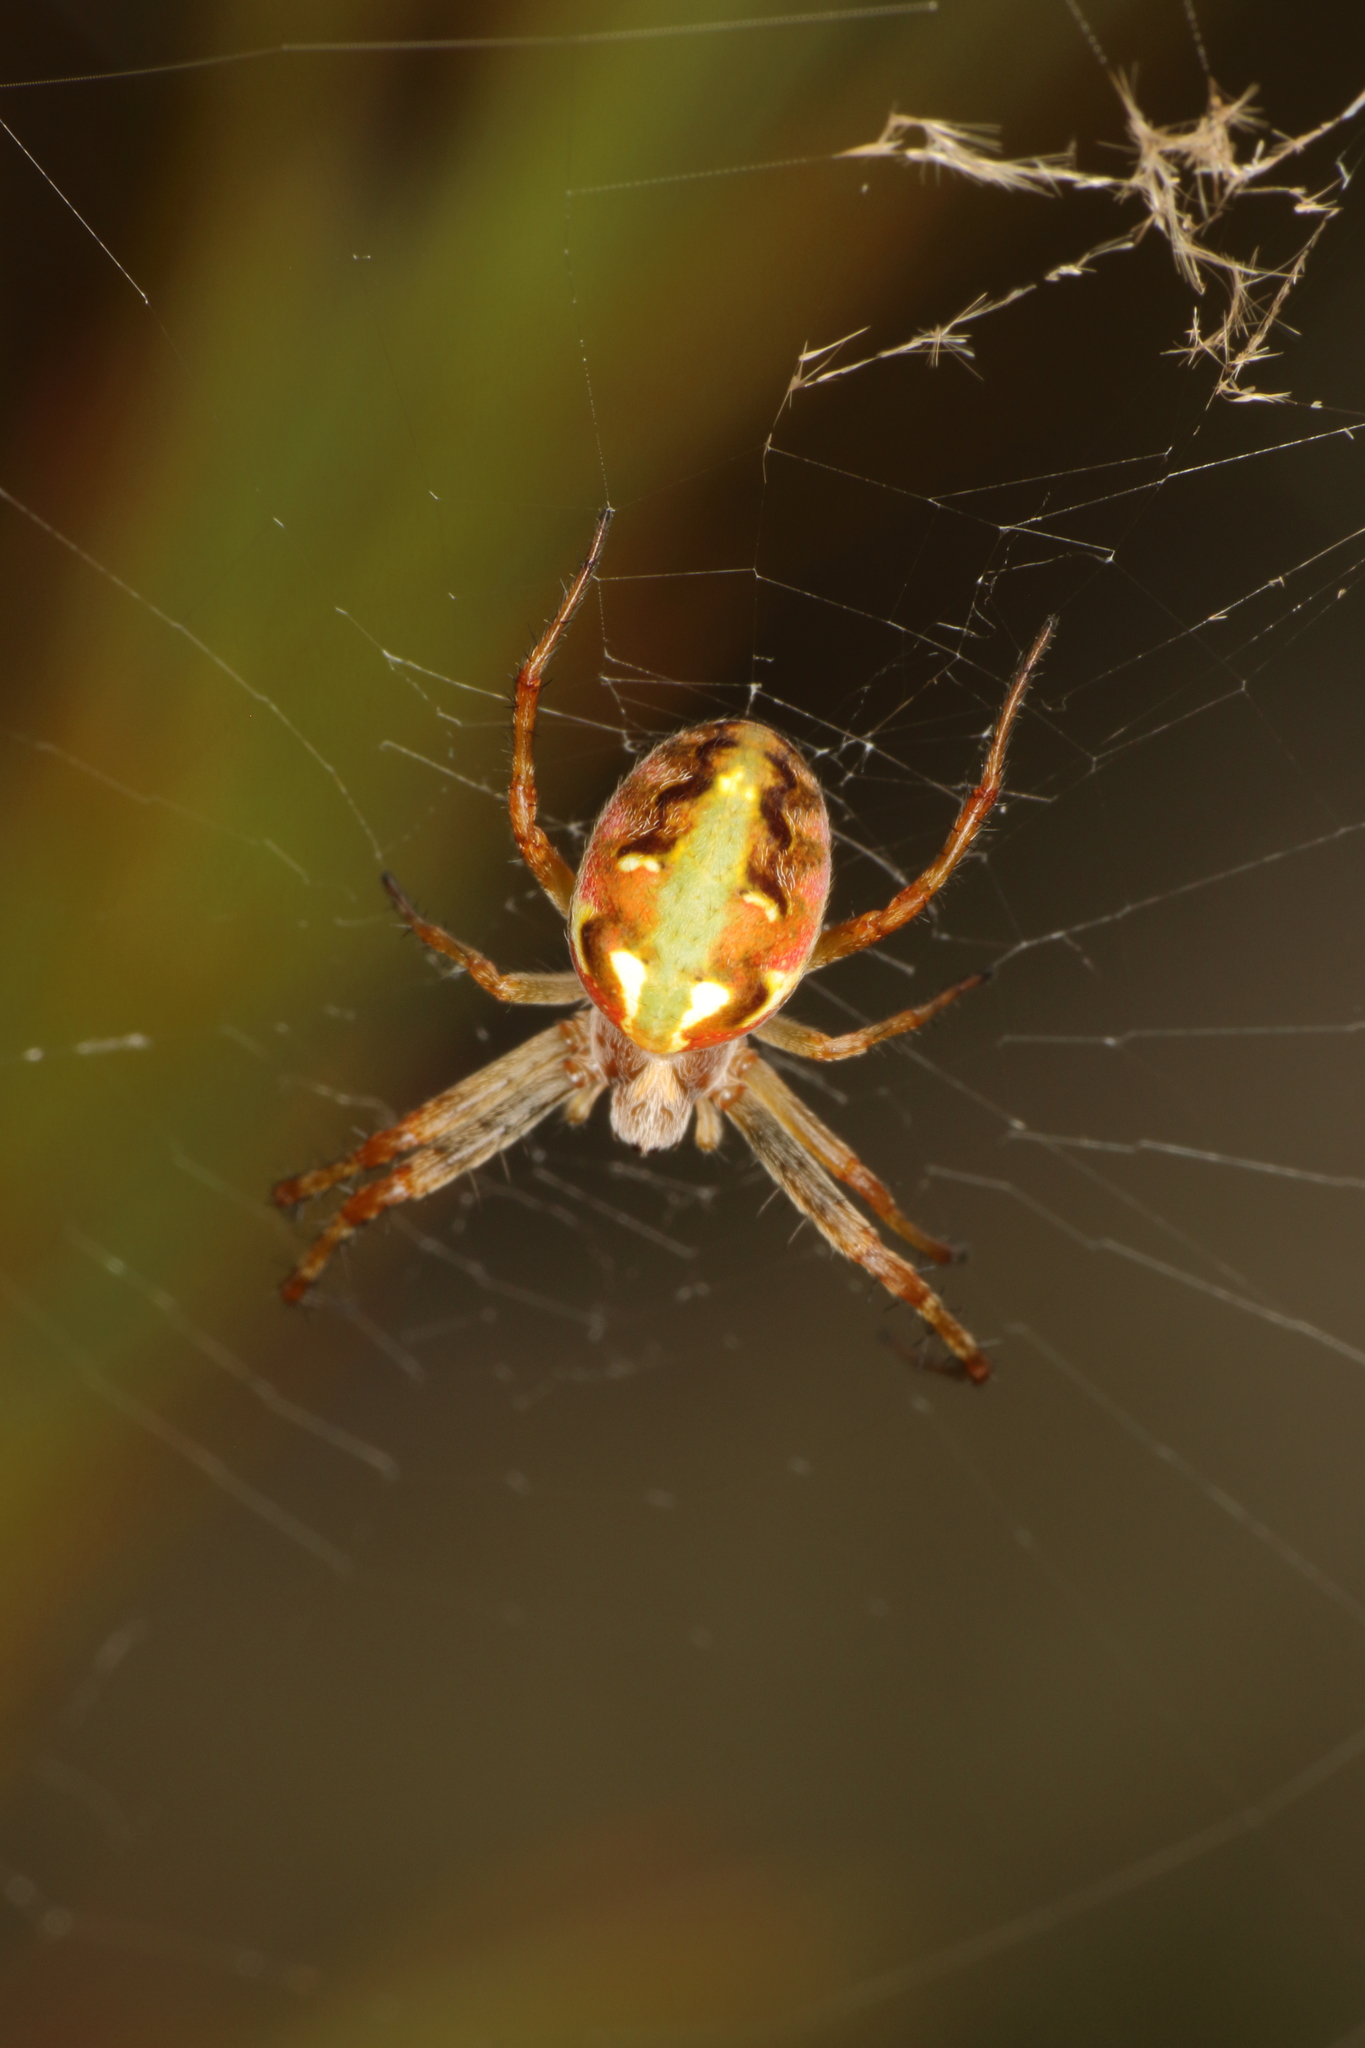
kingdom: Animalia
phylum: Arthropoda
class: Arachnida
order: Araneae
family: Araneidae
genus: Novaranea
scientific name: Novaranea queribunda
